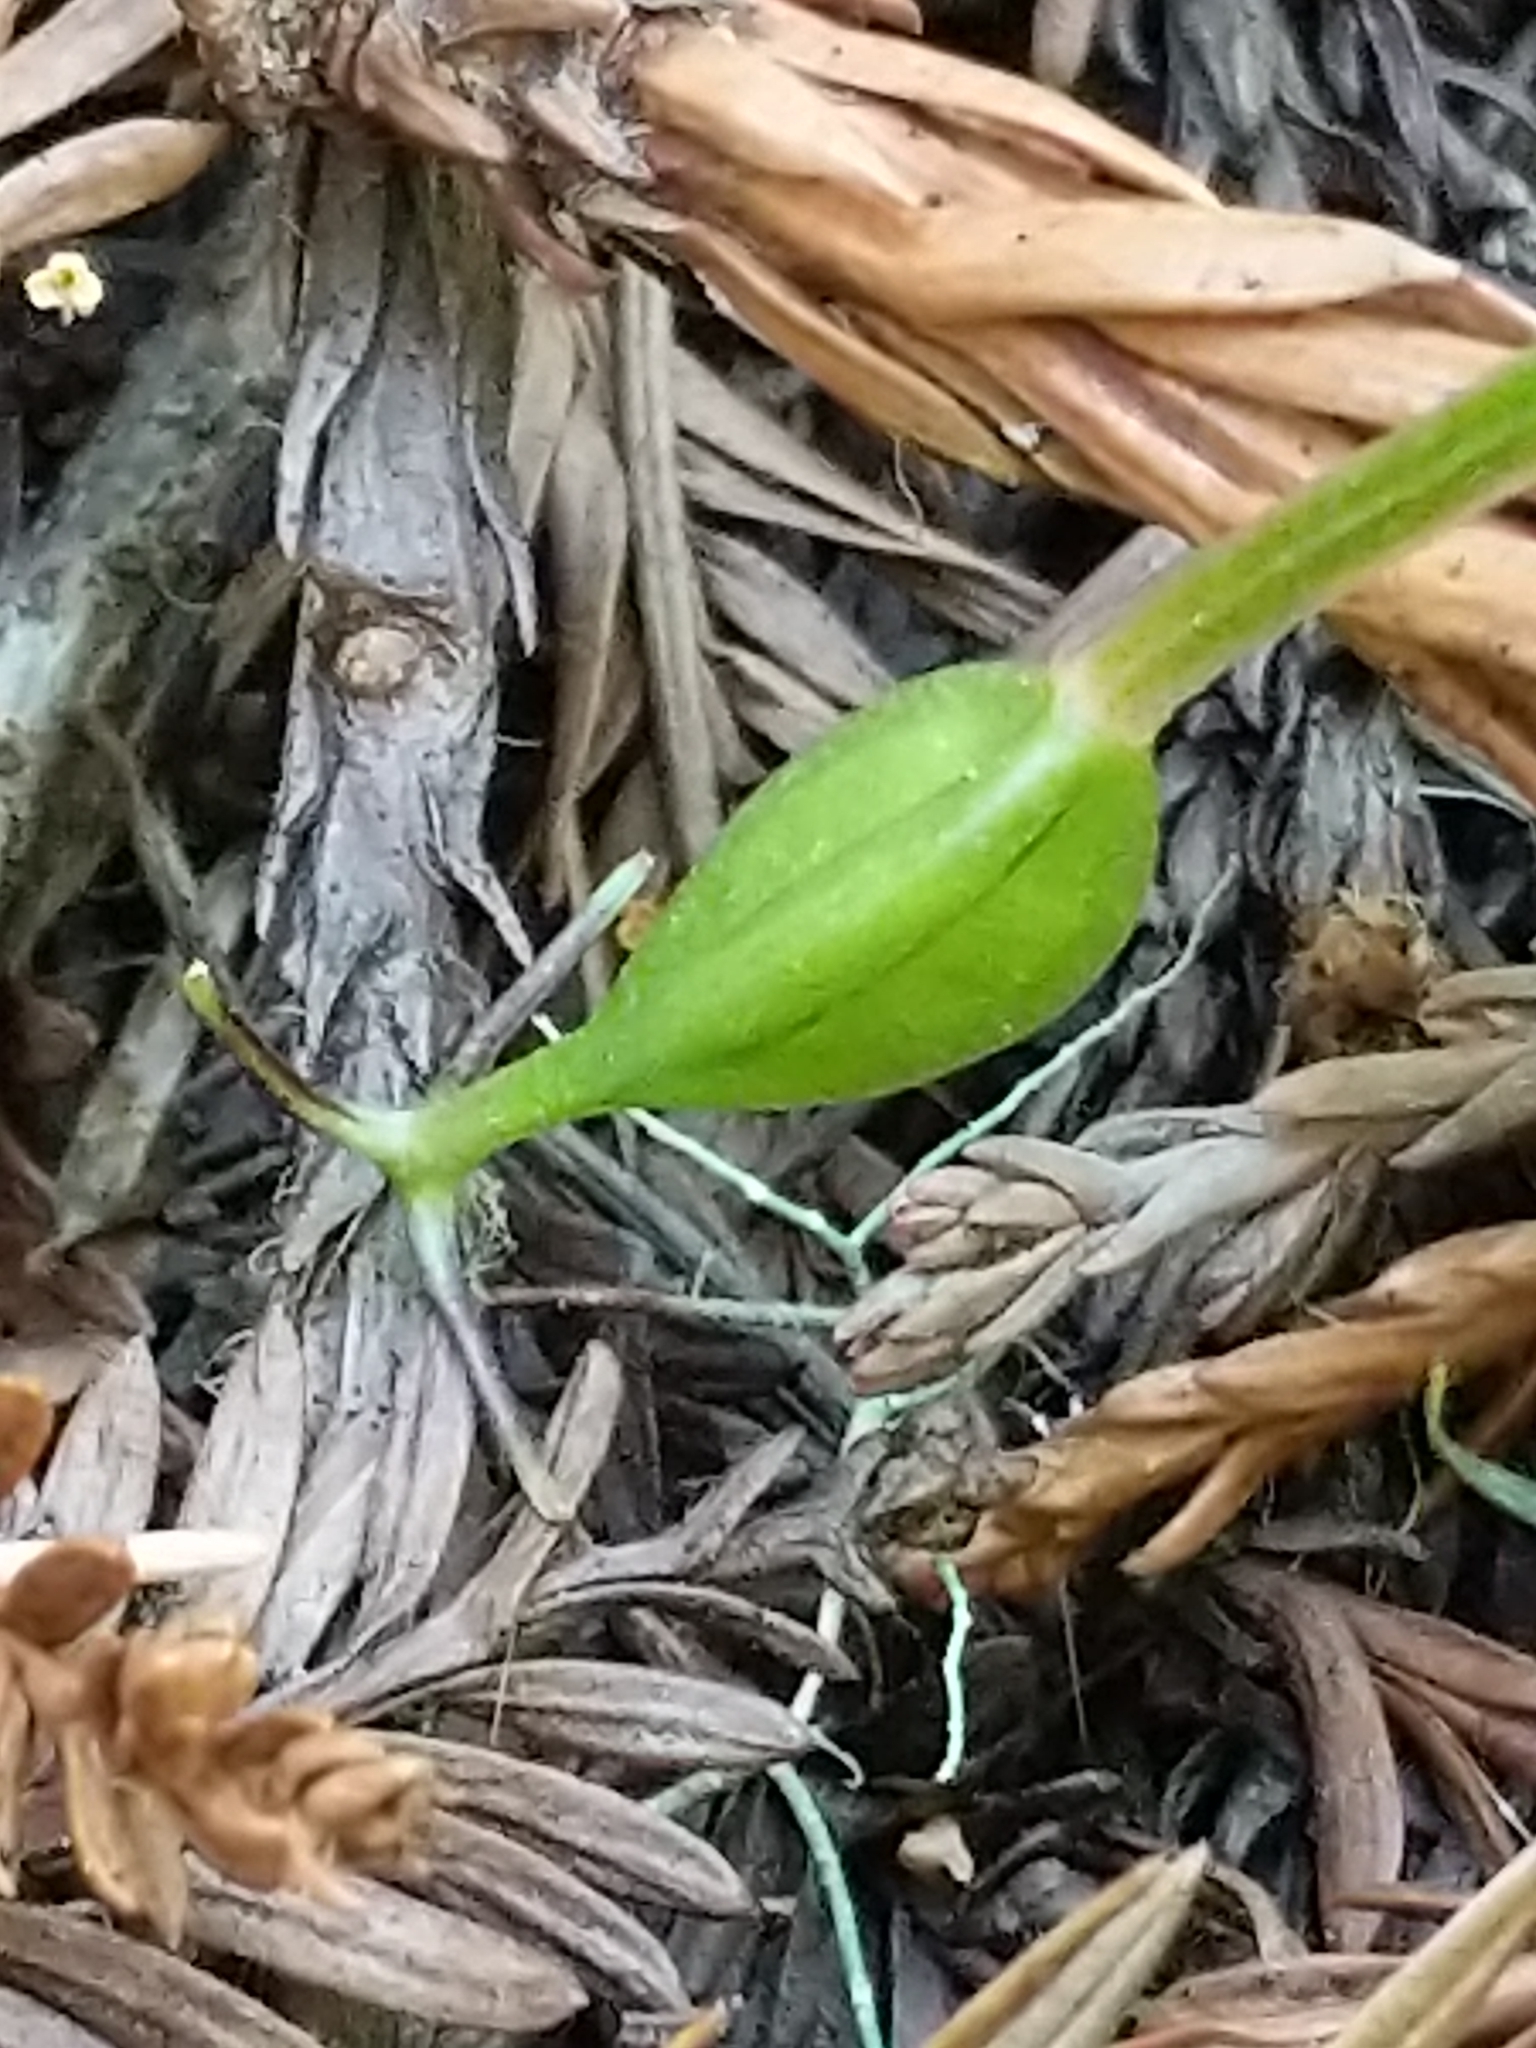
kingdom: Plantae
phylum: Tracheophyta
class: Liliopsida
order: Liliales
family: Liliaceae
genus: Scoliopus
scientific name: Scoliopus bigelovii
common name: Foetid adder's-tongue
